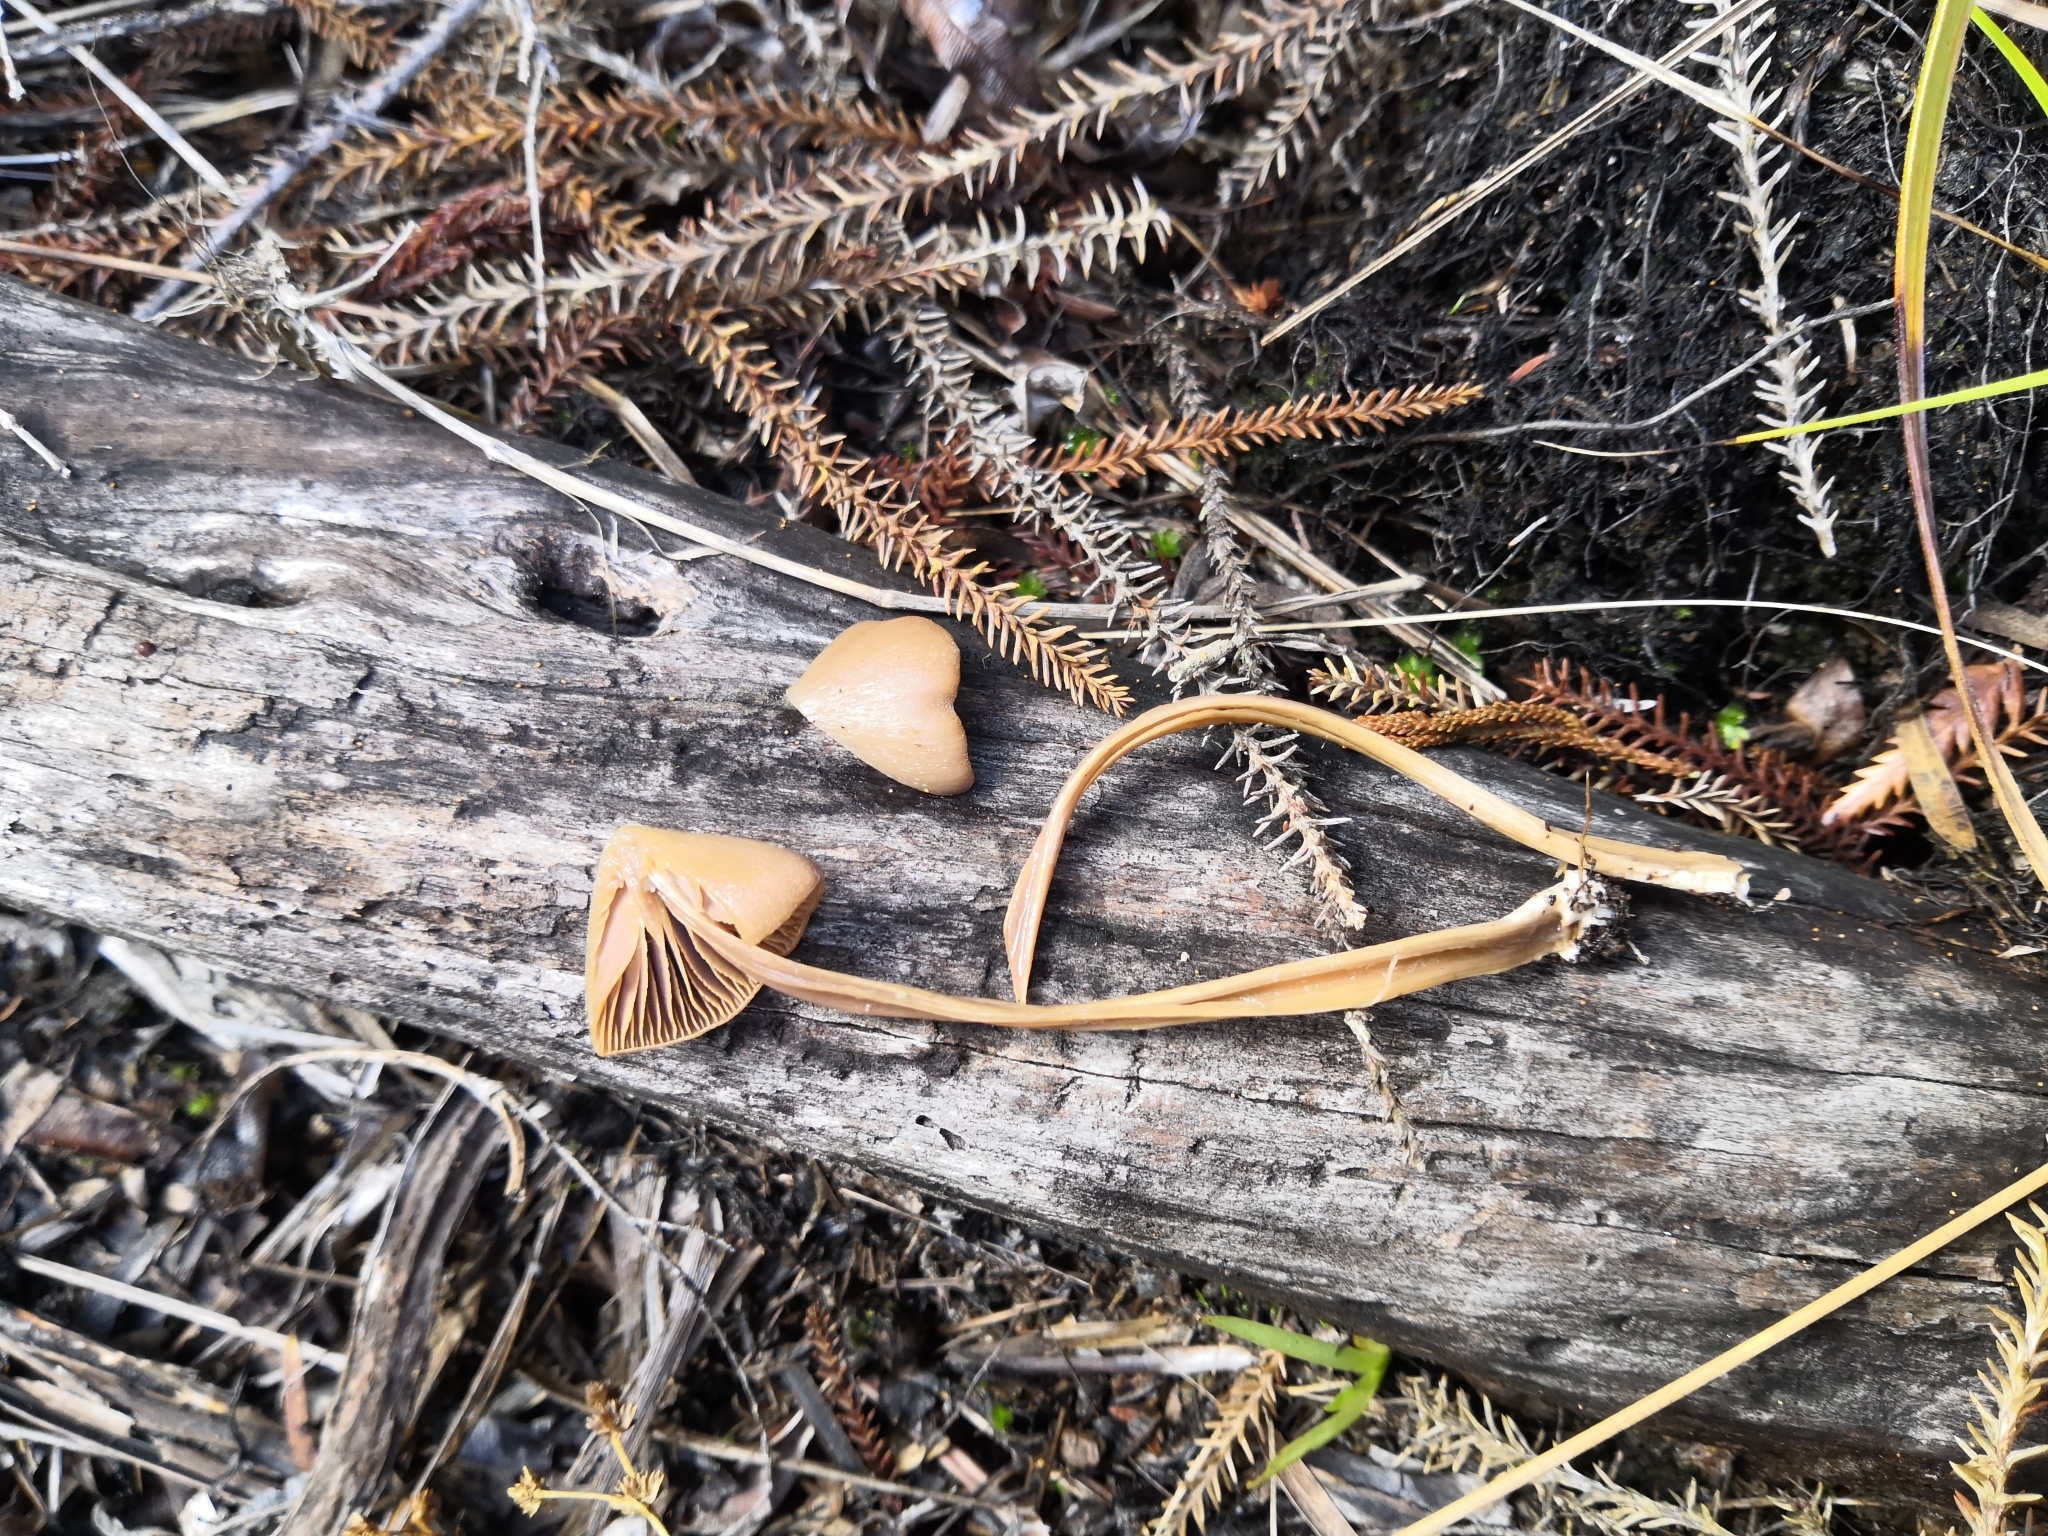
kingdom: Fungi
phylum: Basidiomycota
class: Agaricomycetes
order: Agaricales
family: Entolomataceae
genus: Entoloma
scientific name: Entoloma latericolor
